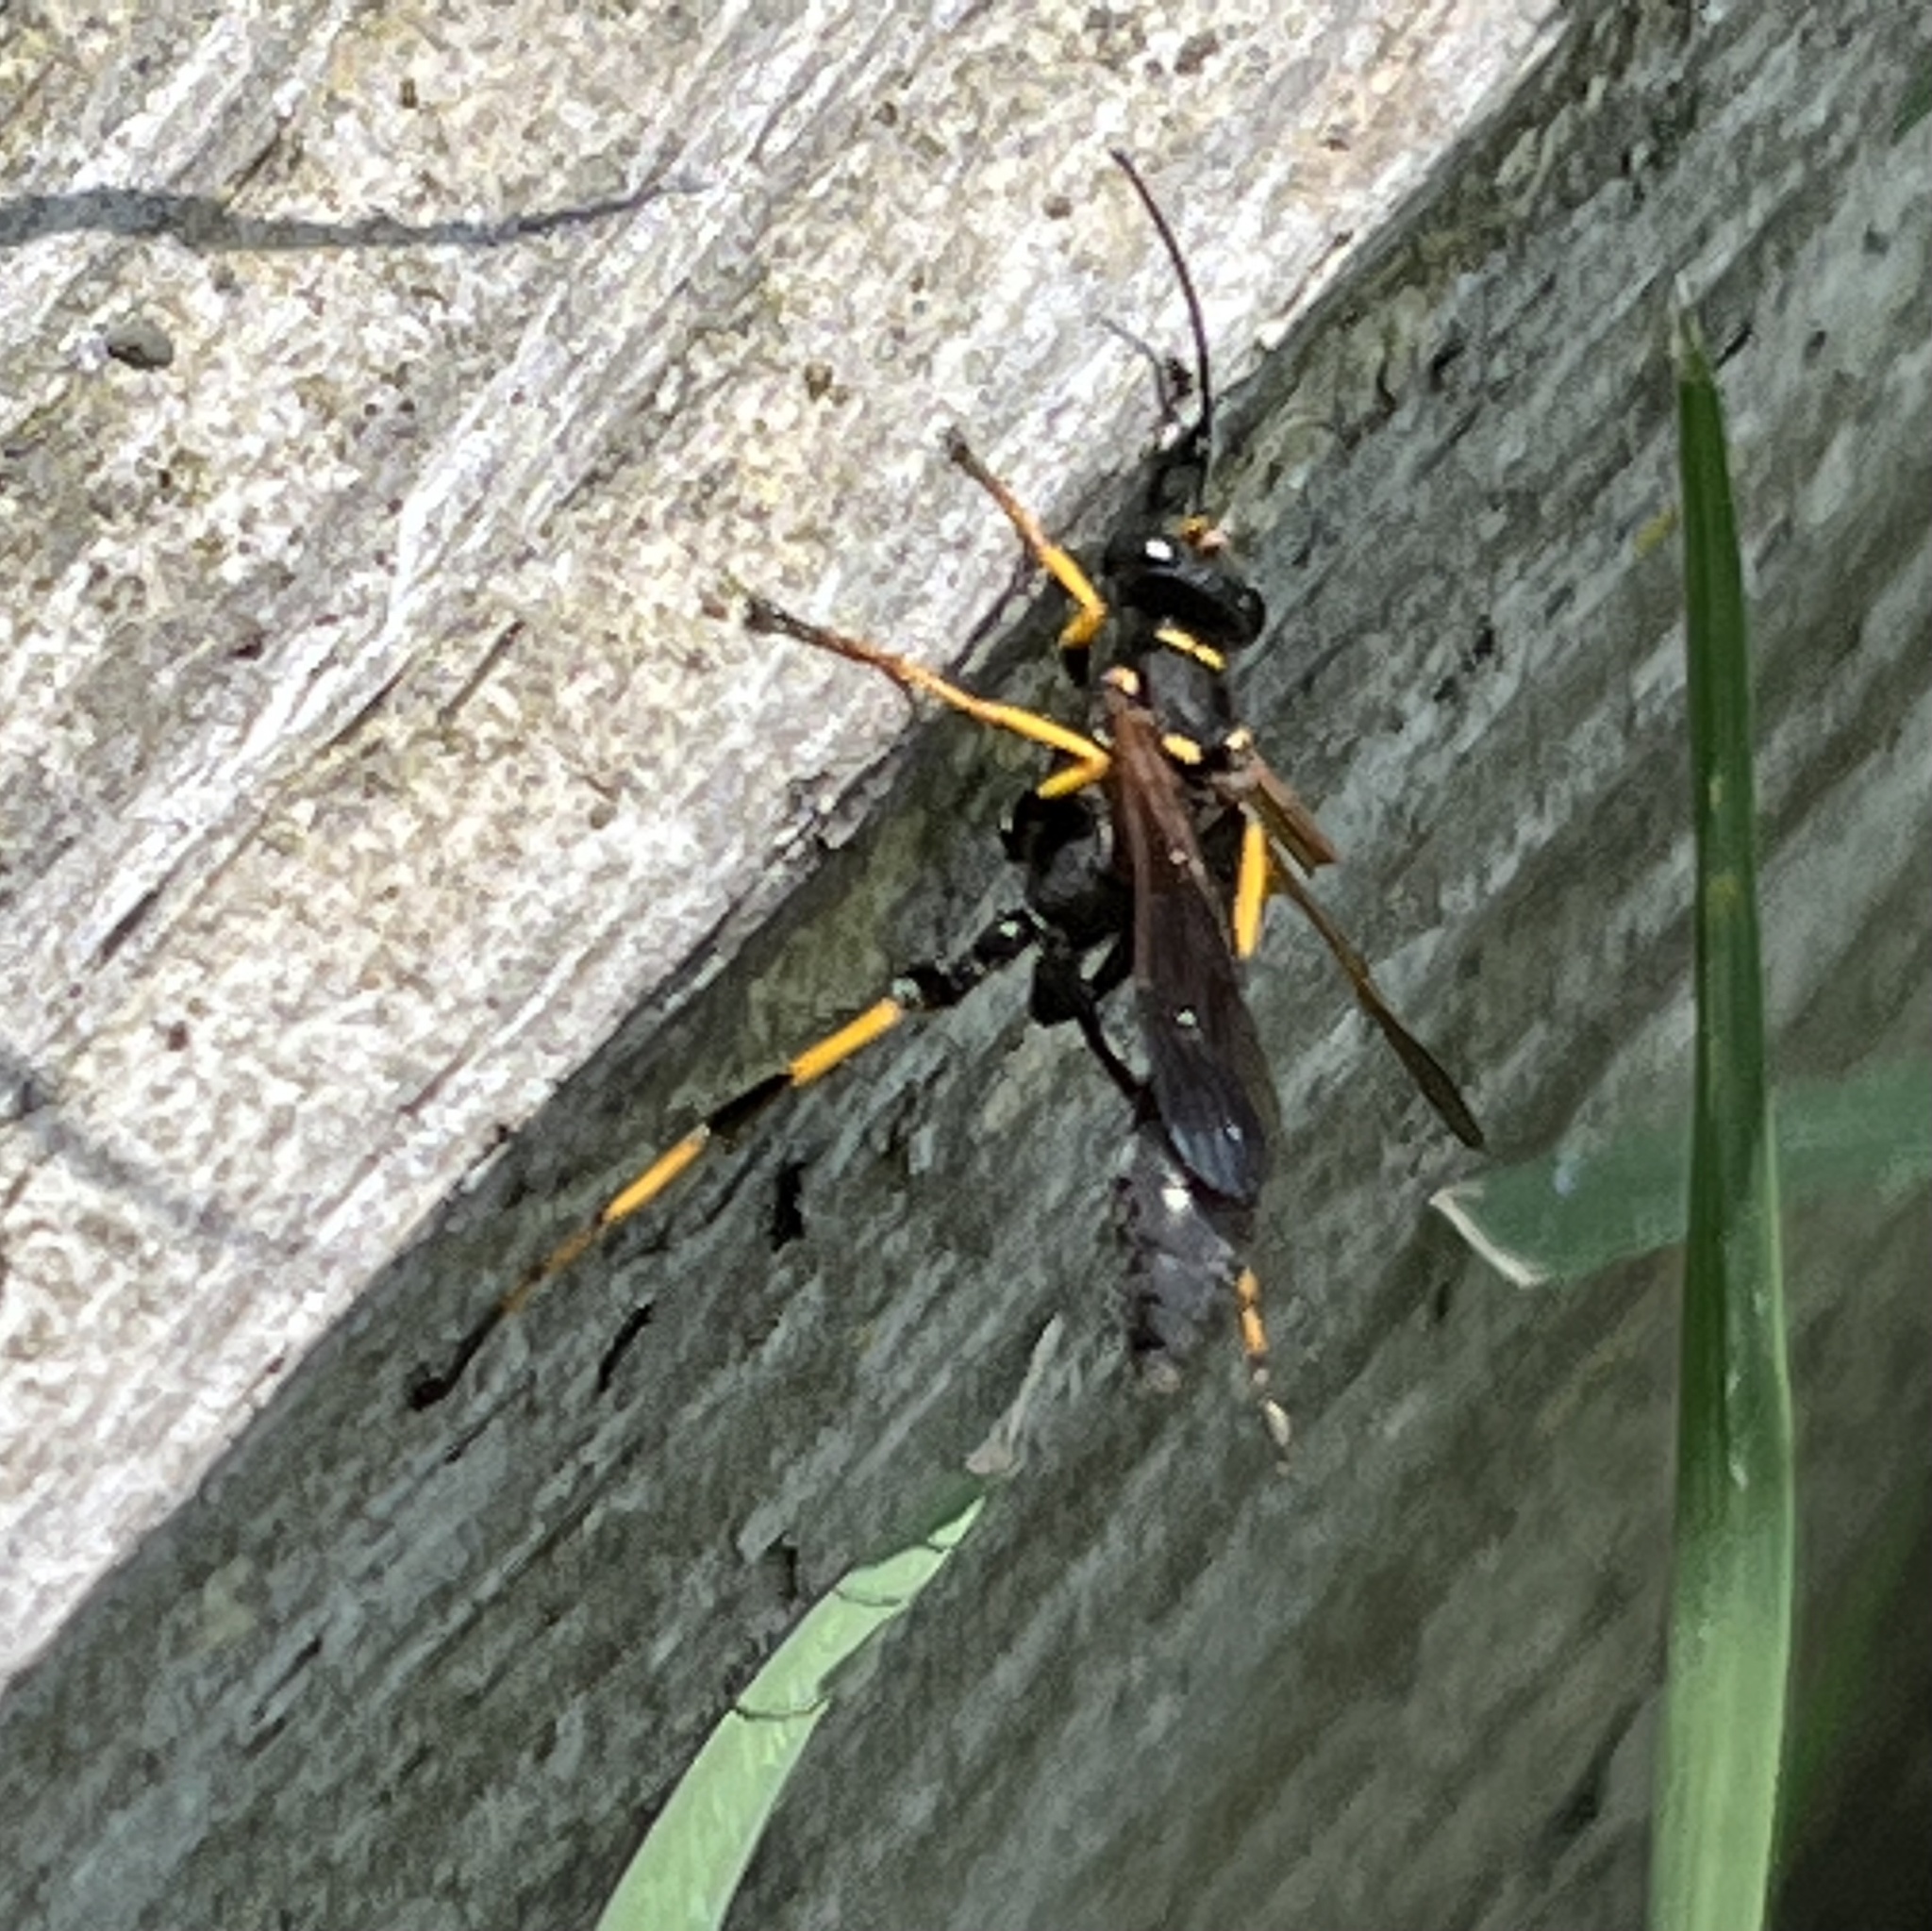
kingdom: Animalia
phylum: Arthropoda
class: Insecta
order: Hymenoptera
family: Sphecidae
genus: Sceliphron
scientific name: Sceliphron caementarium
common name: Mud dauber
